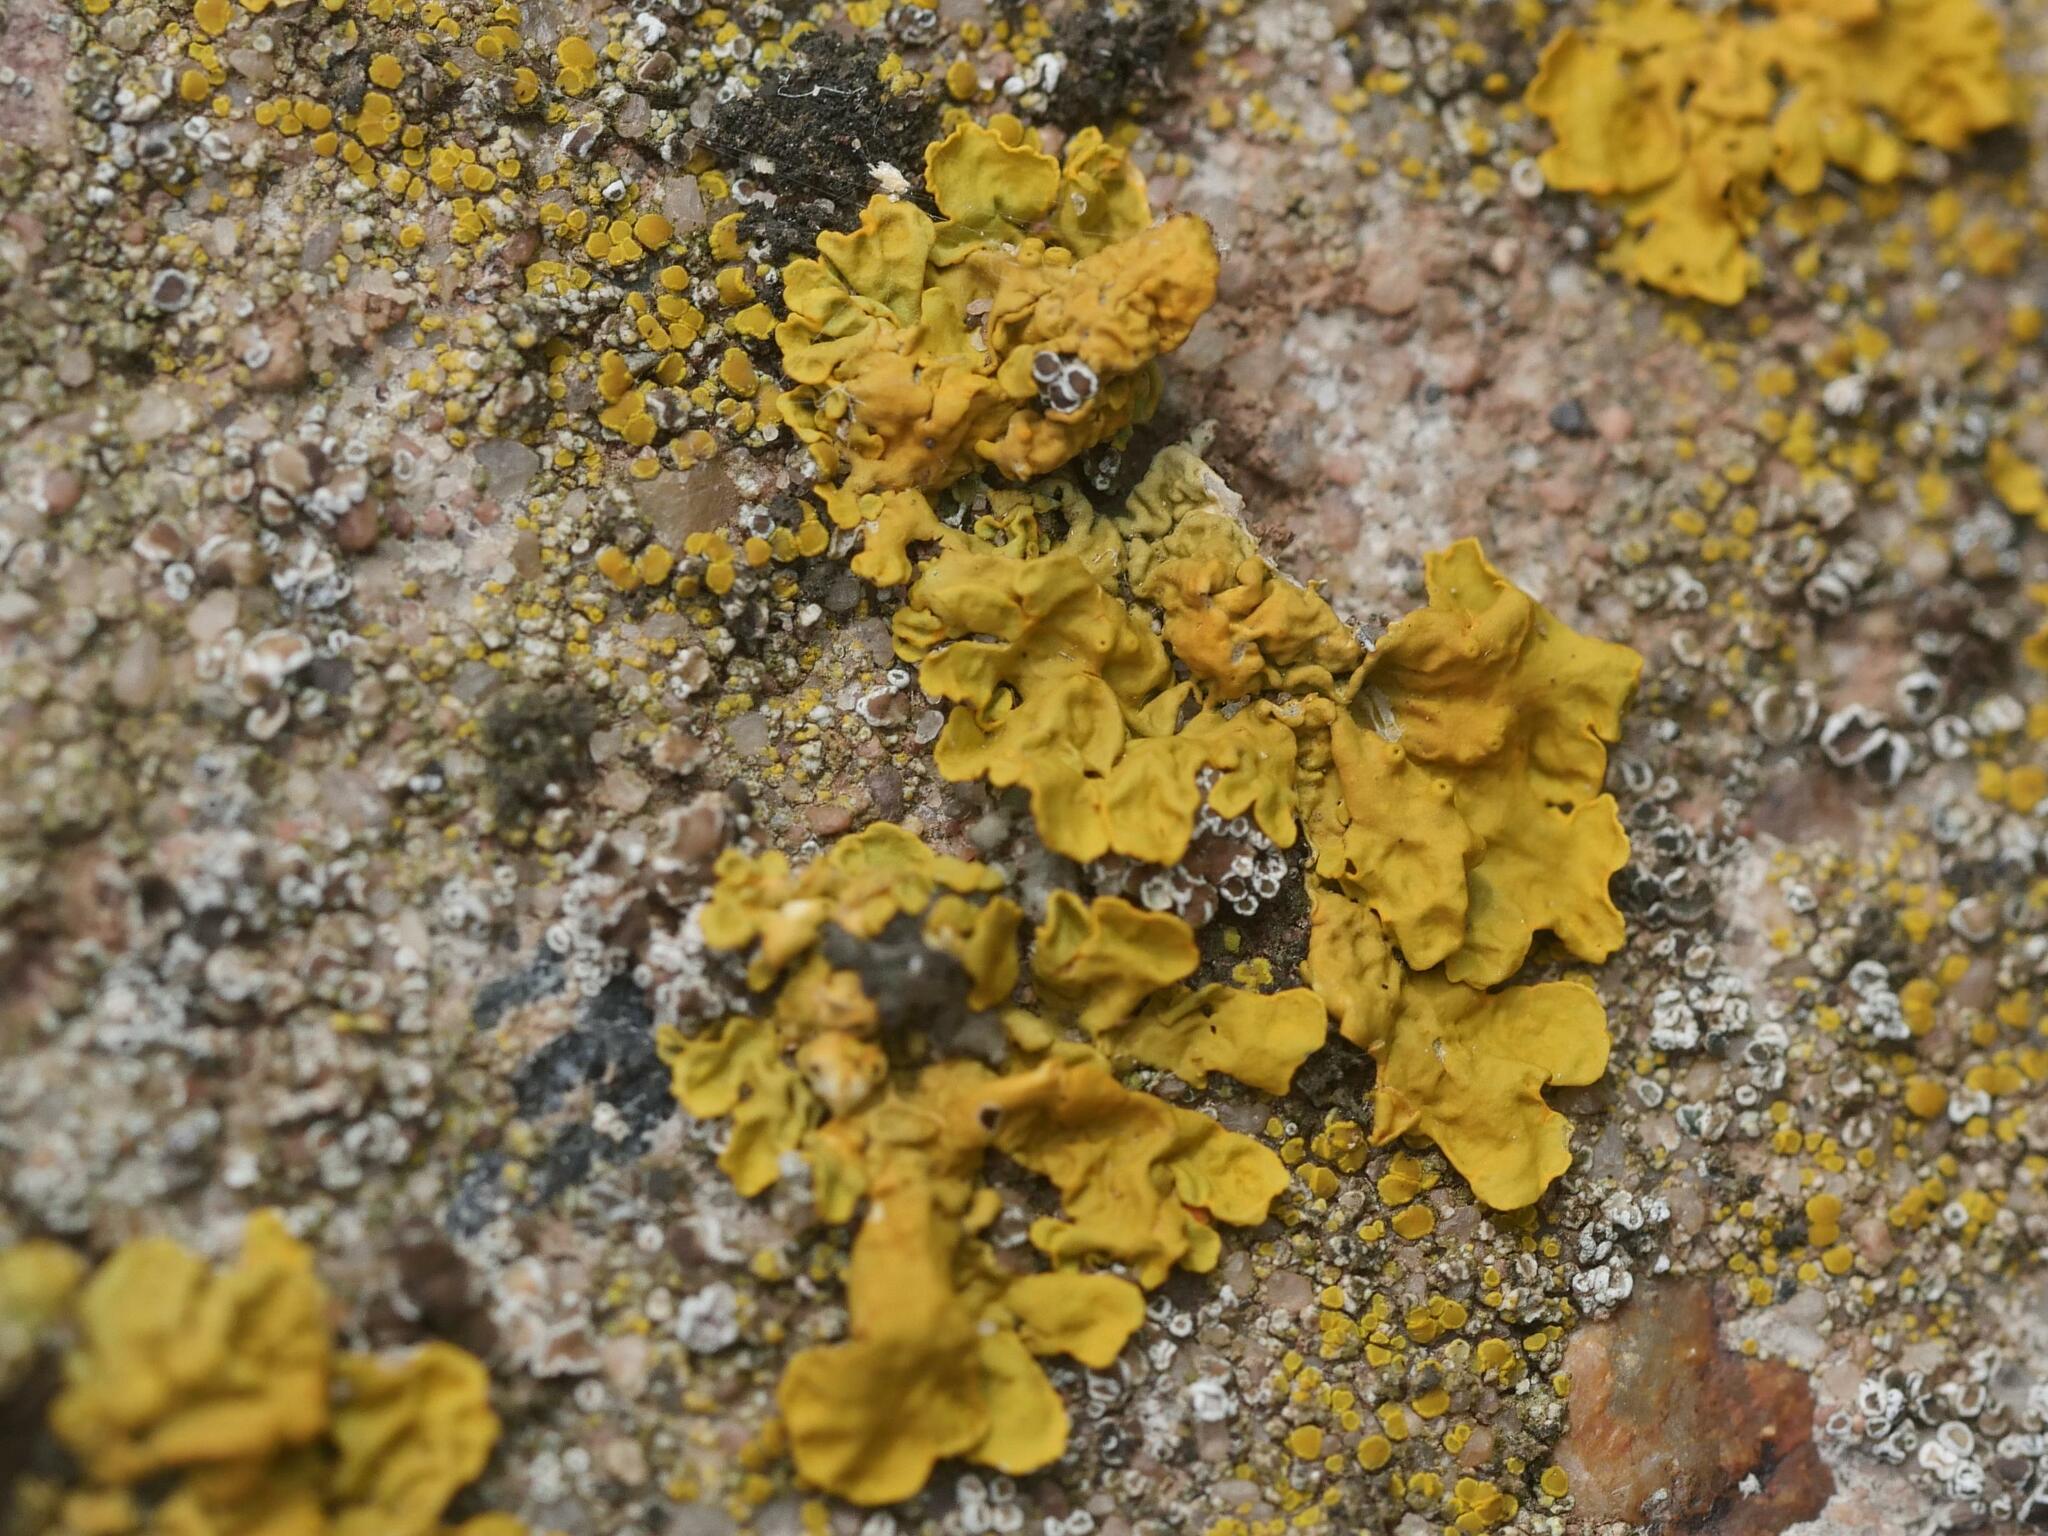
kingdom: Fungi
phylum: Ascomycota
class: Lecanoromycetes
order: Teloschistales
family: Teloschistaceae
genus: Xanthoria
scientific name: Xanthoria parietina
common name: Common orange lichen
